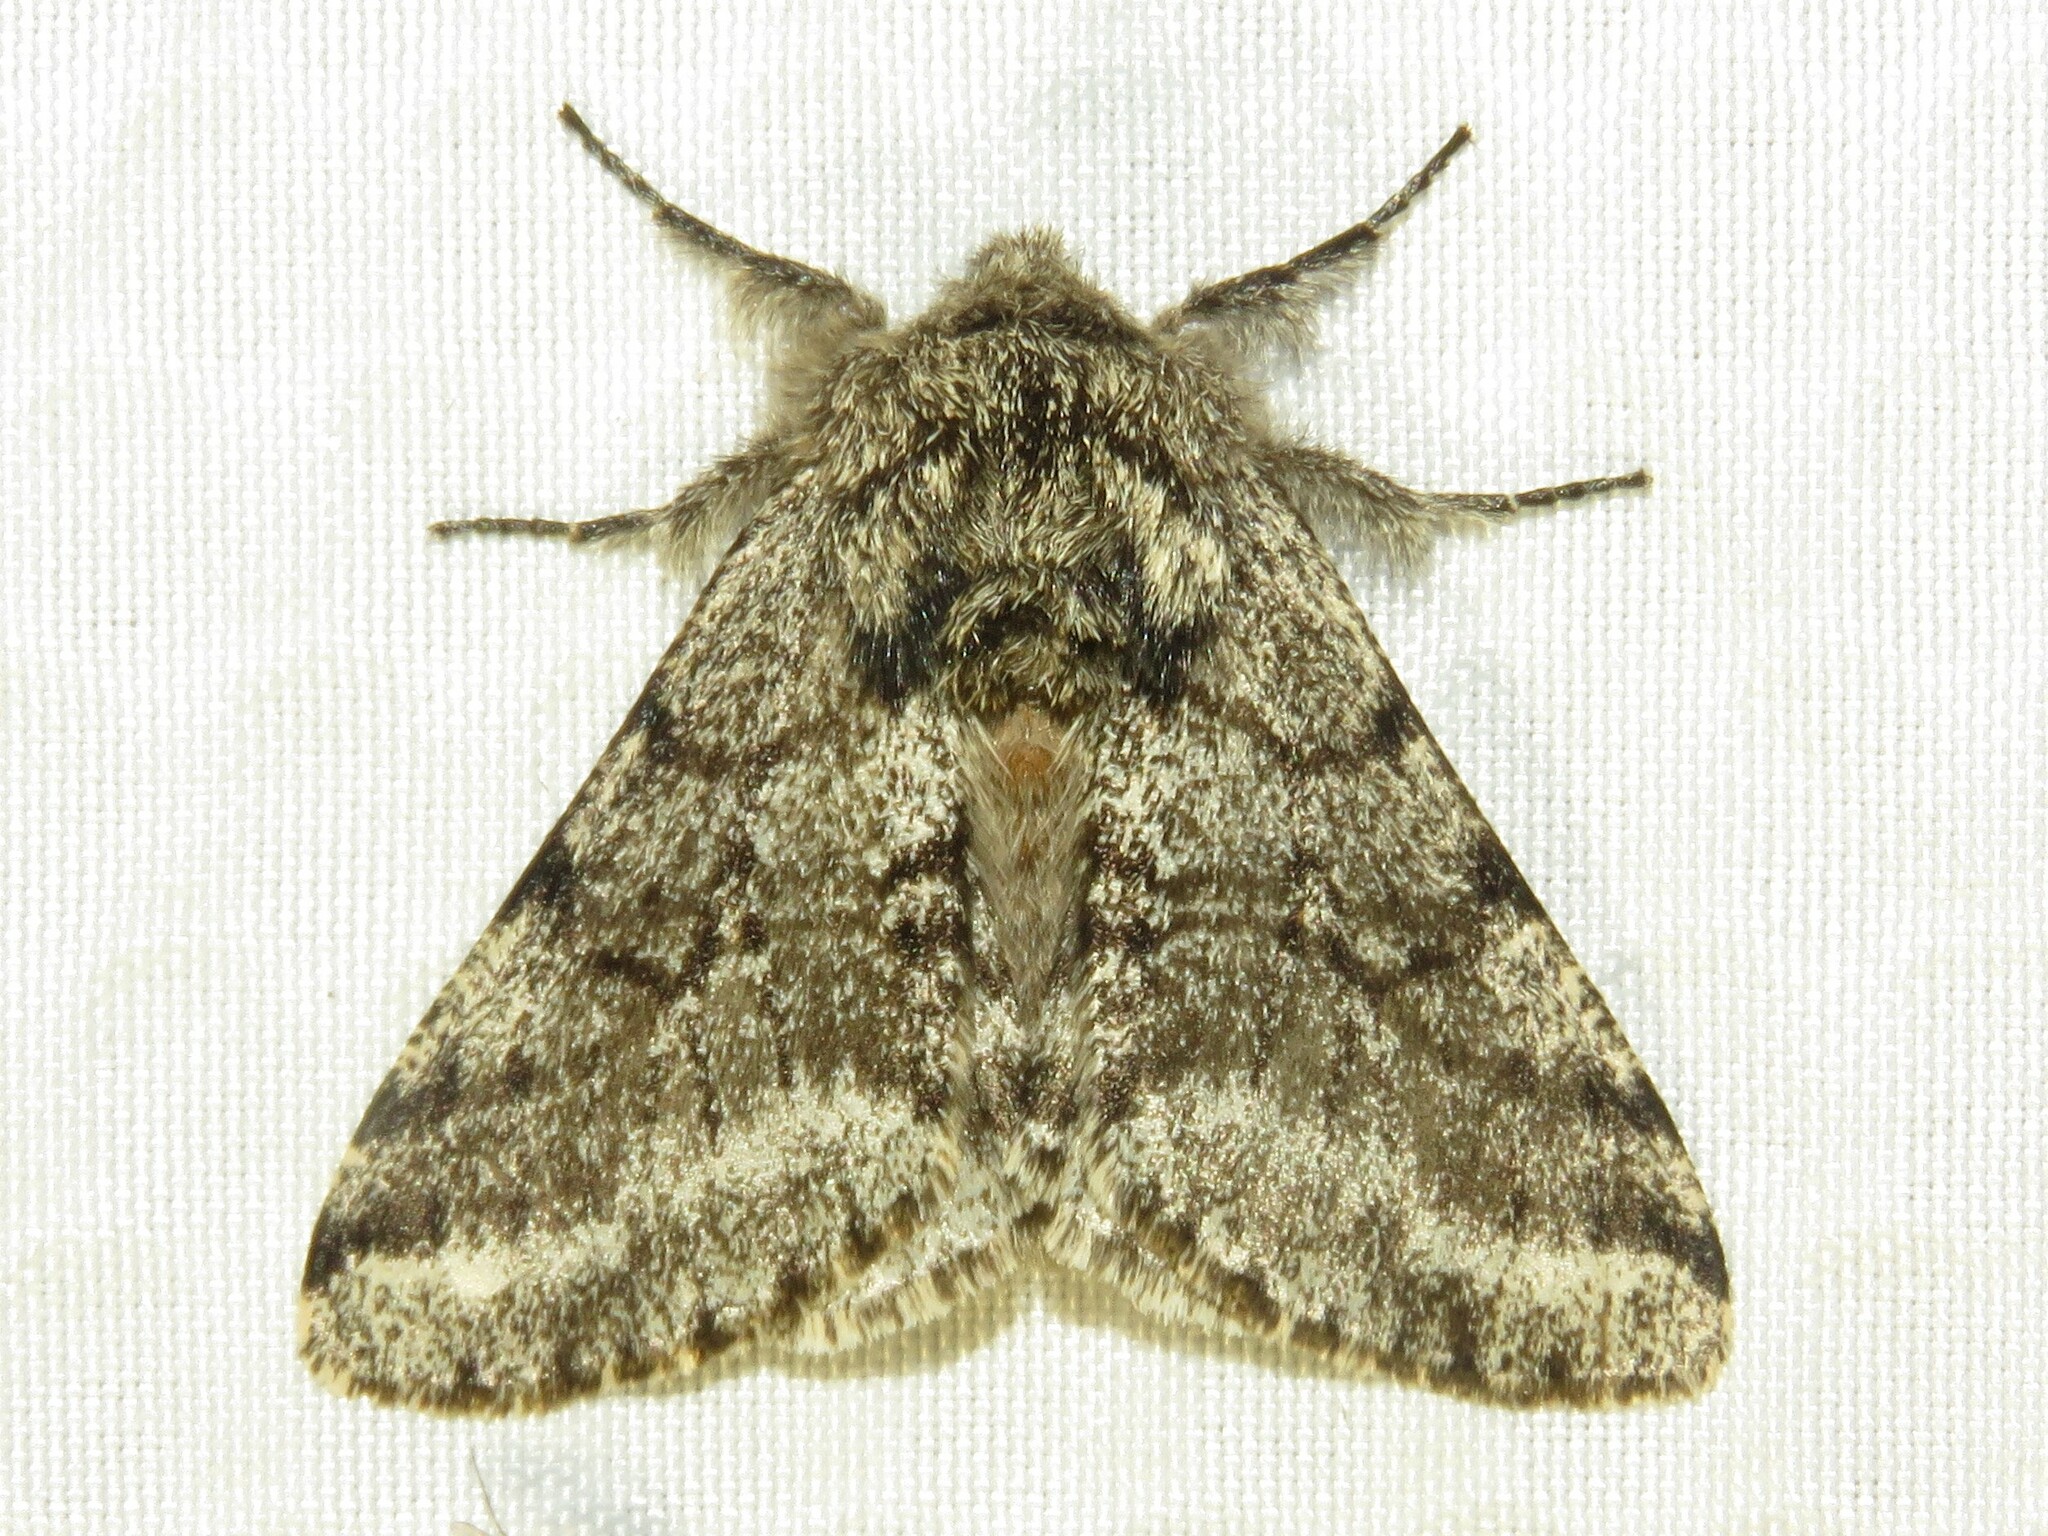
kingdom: Animalia
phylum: Arthropoda
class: Insecta
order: Lepidoptera
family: Geometridae
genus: Lycia
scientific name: Lycia ursaria
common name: Stout spanworm
